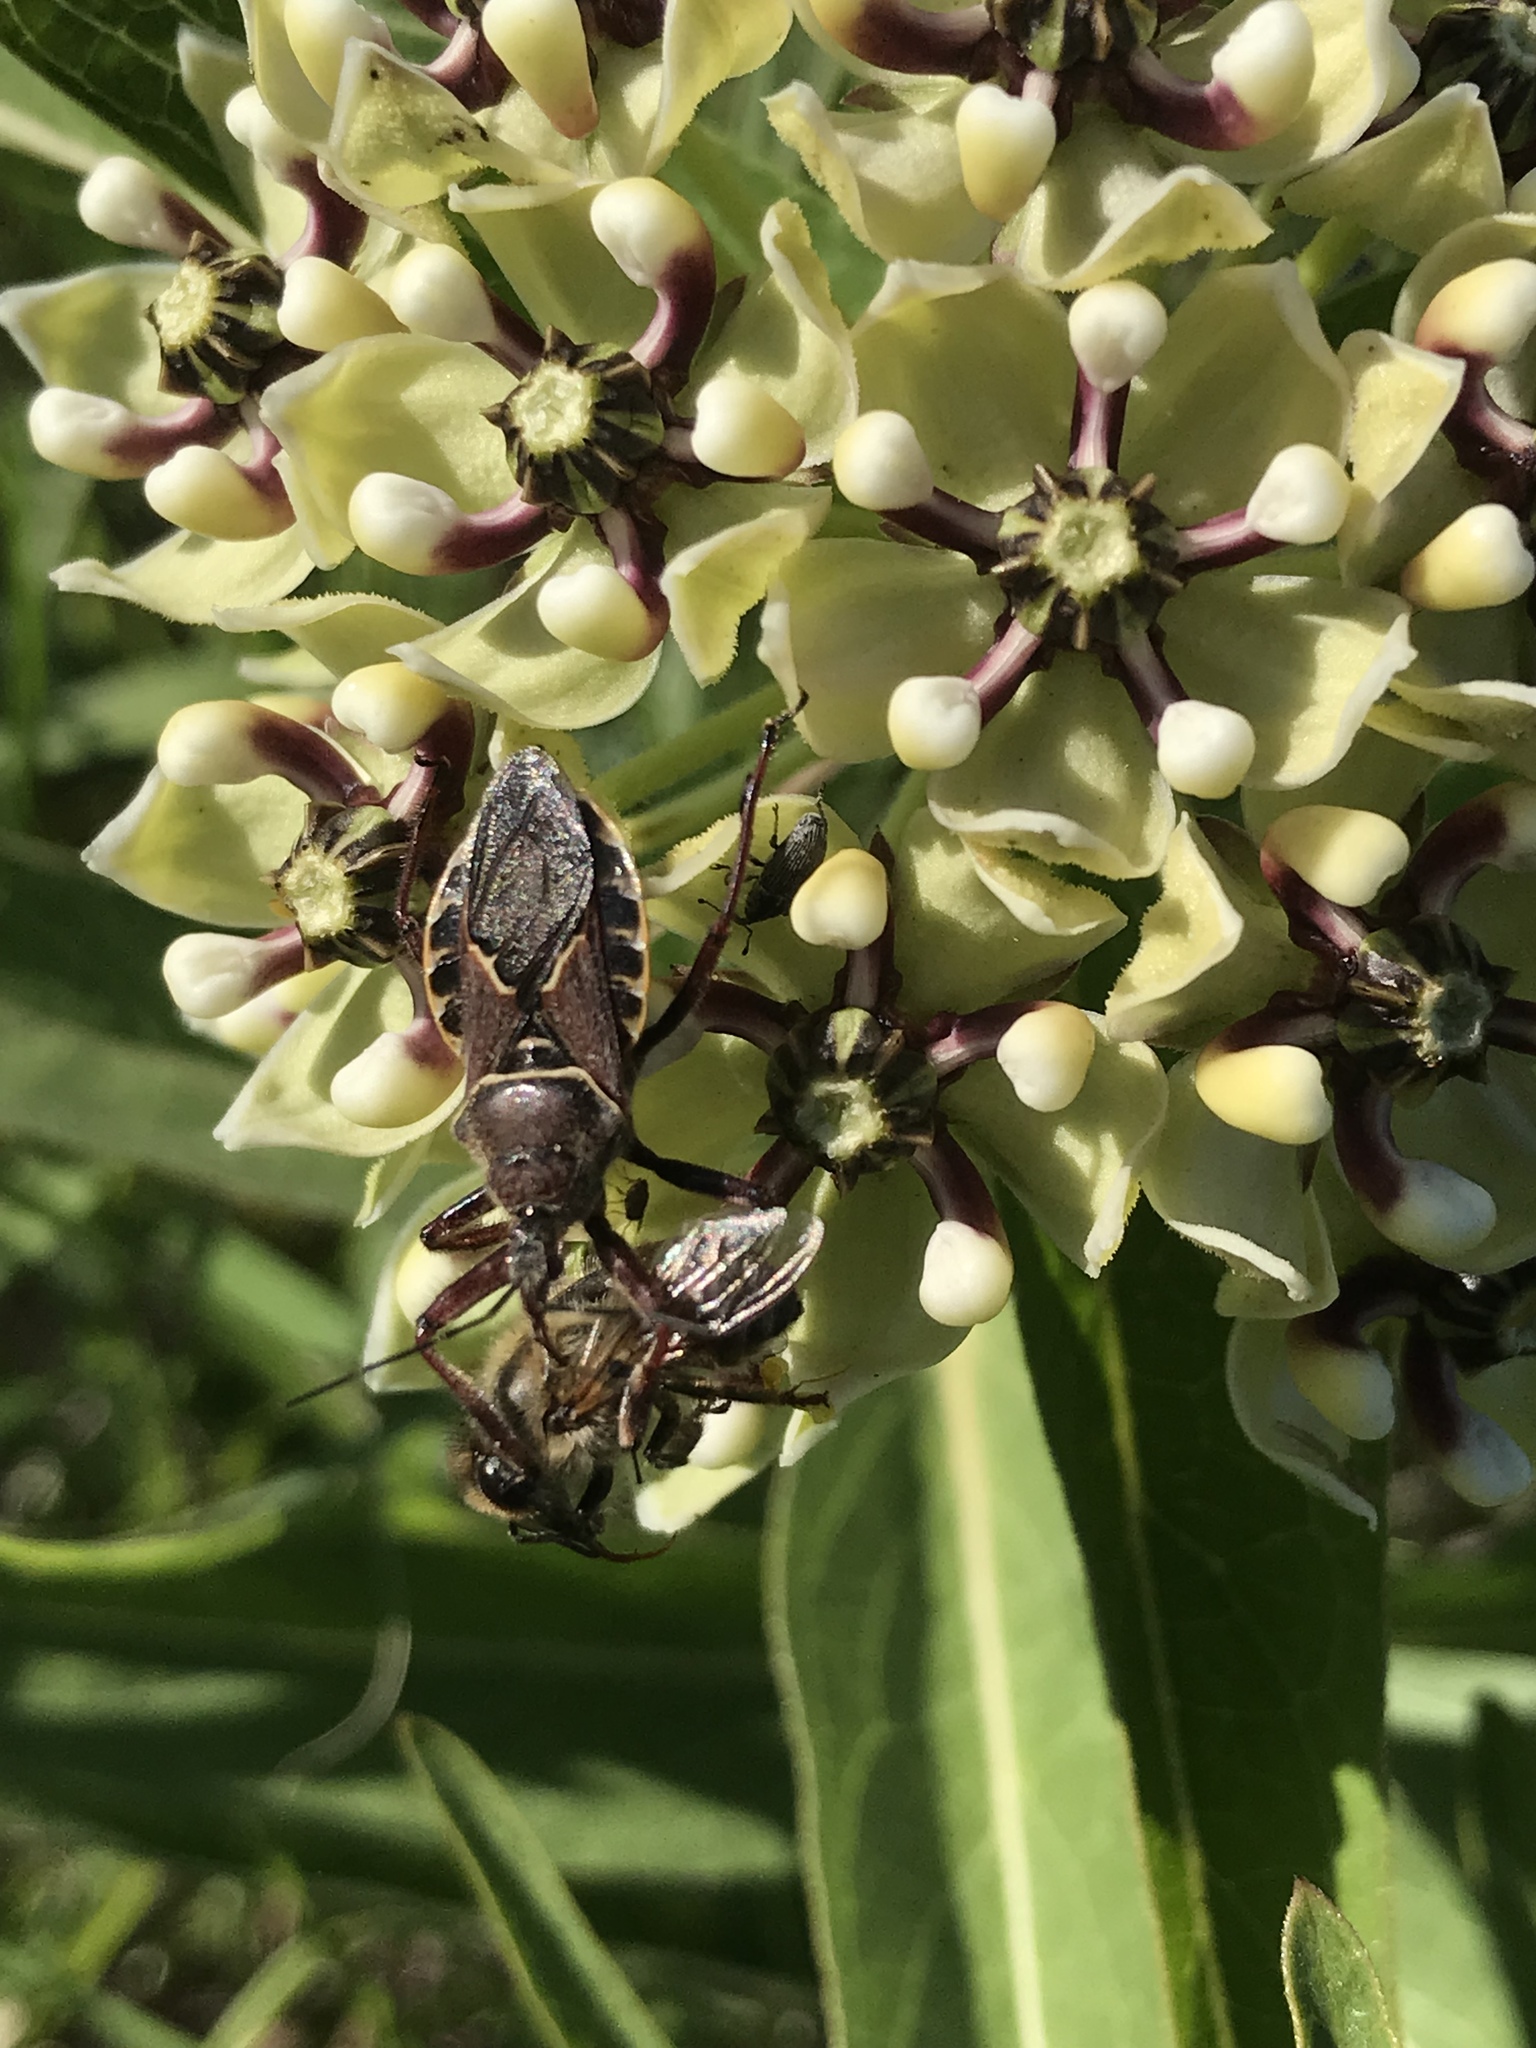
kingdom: Animalia
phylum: Arthropoda
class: Insecta
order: Hemiptera
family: Reduviidae
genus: Apiomerus
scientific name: Apiomerus spissipes
